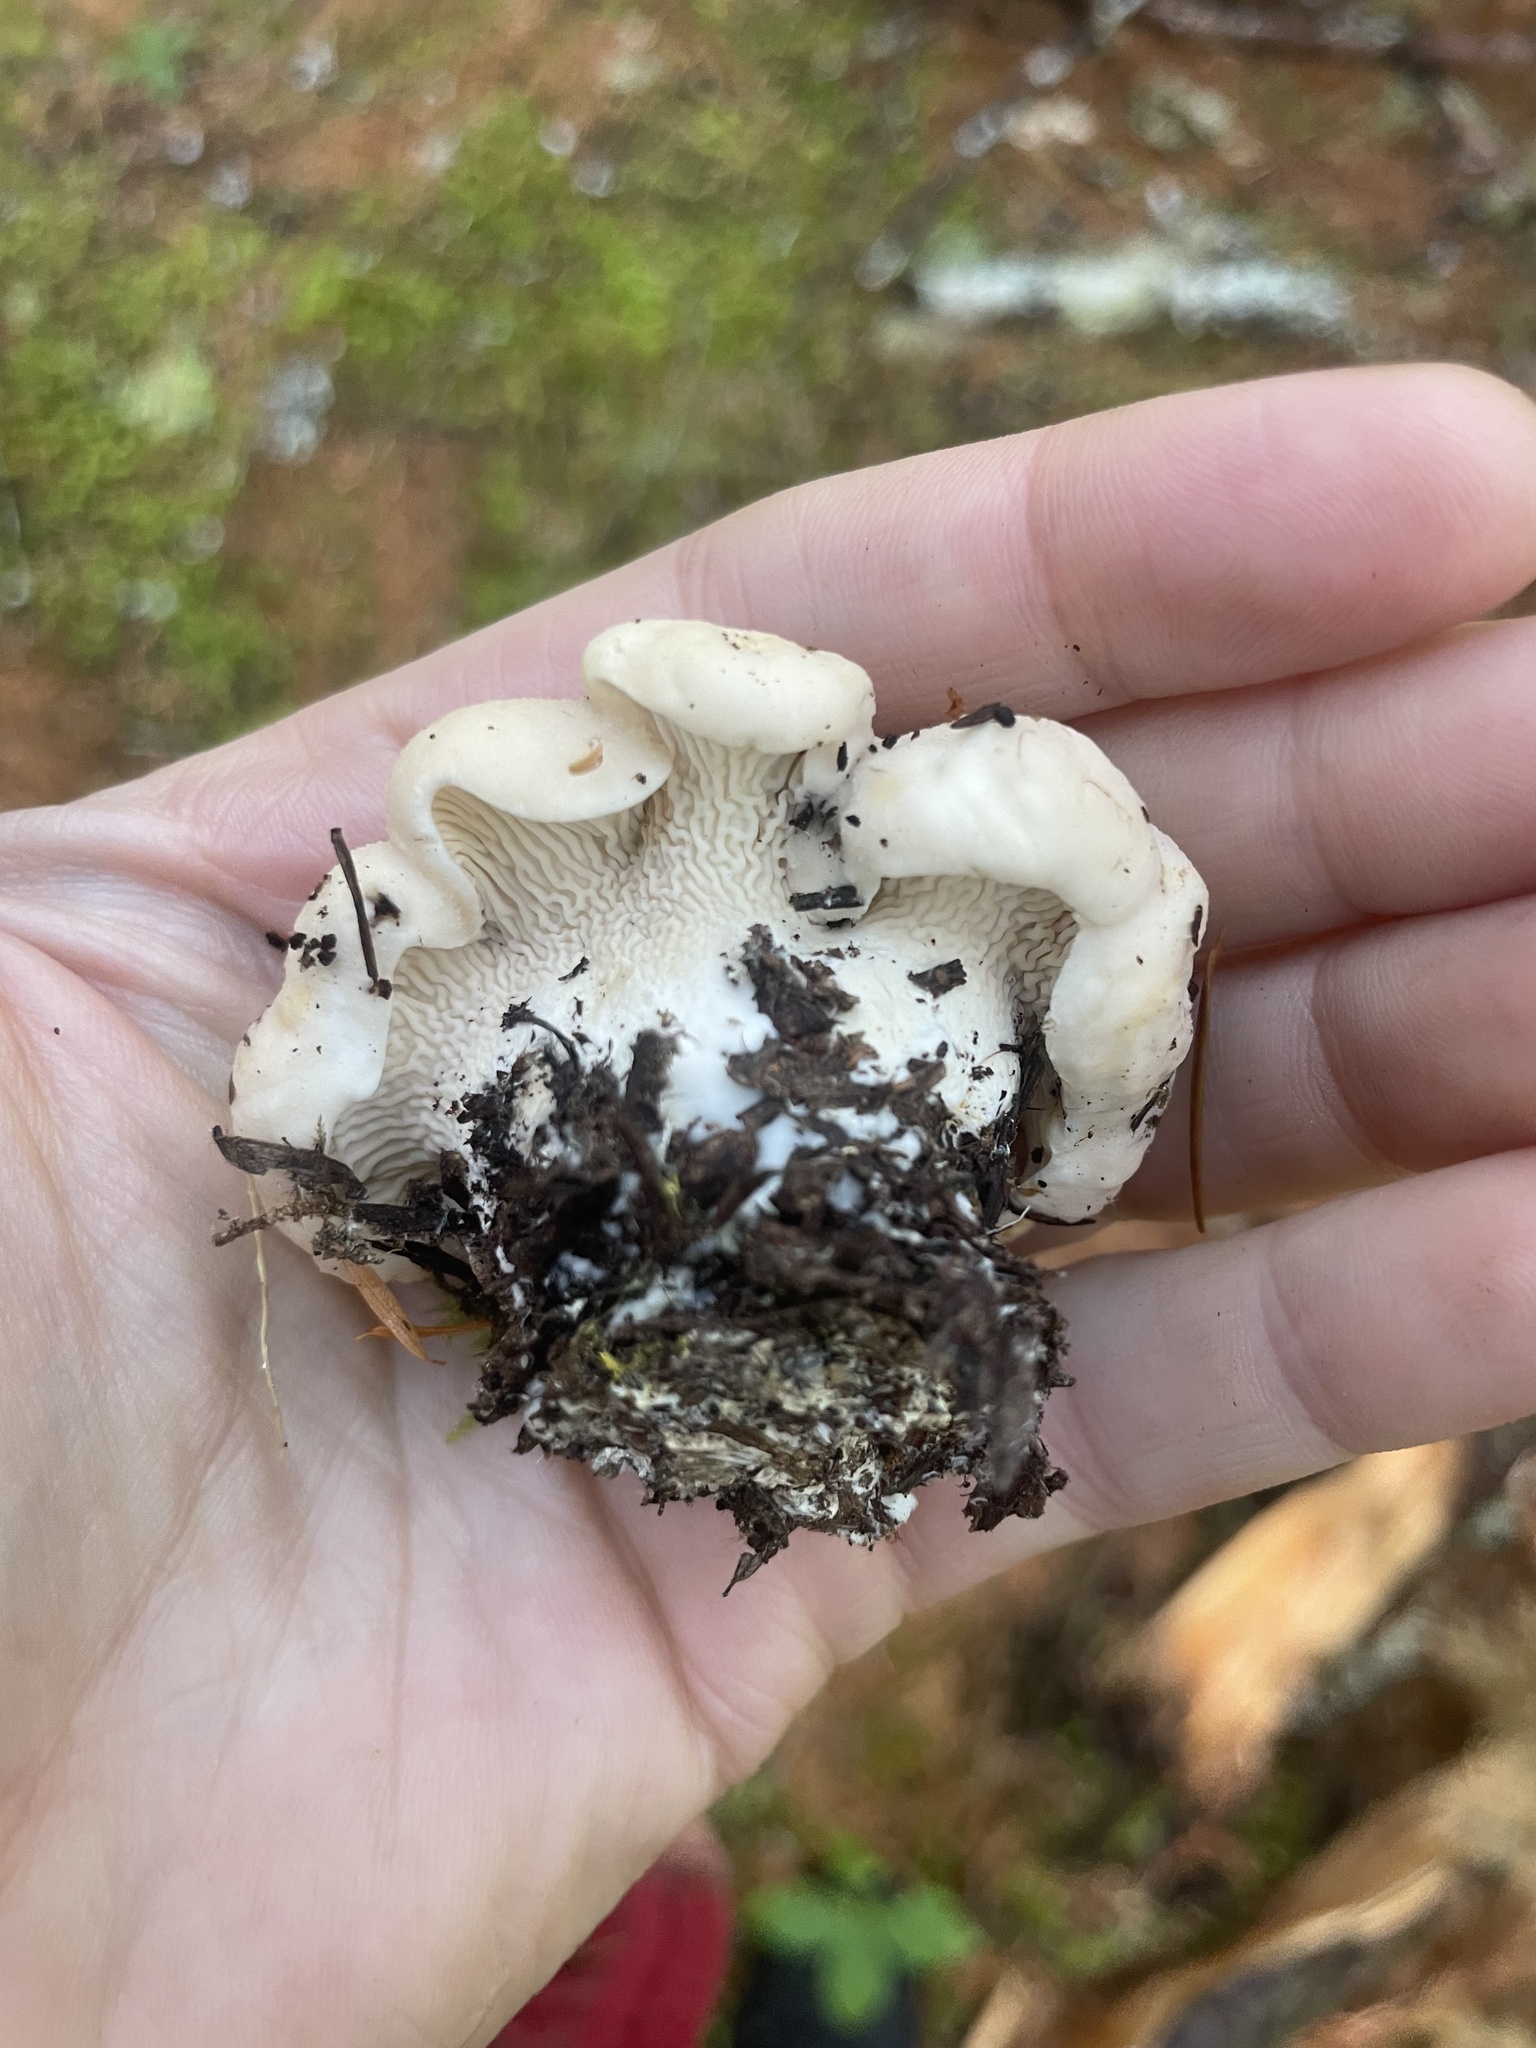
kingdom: Fungi
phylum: Basidiomycota
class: Agaricomycetes
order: Cantharellales
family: Hydnaceae
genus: Cantharellus
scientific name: Cantharellus subalbidus
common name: White chanterelle
